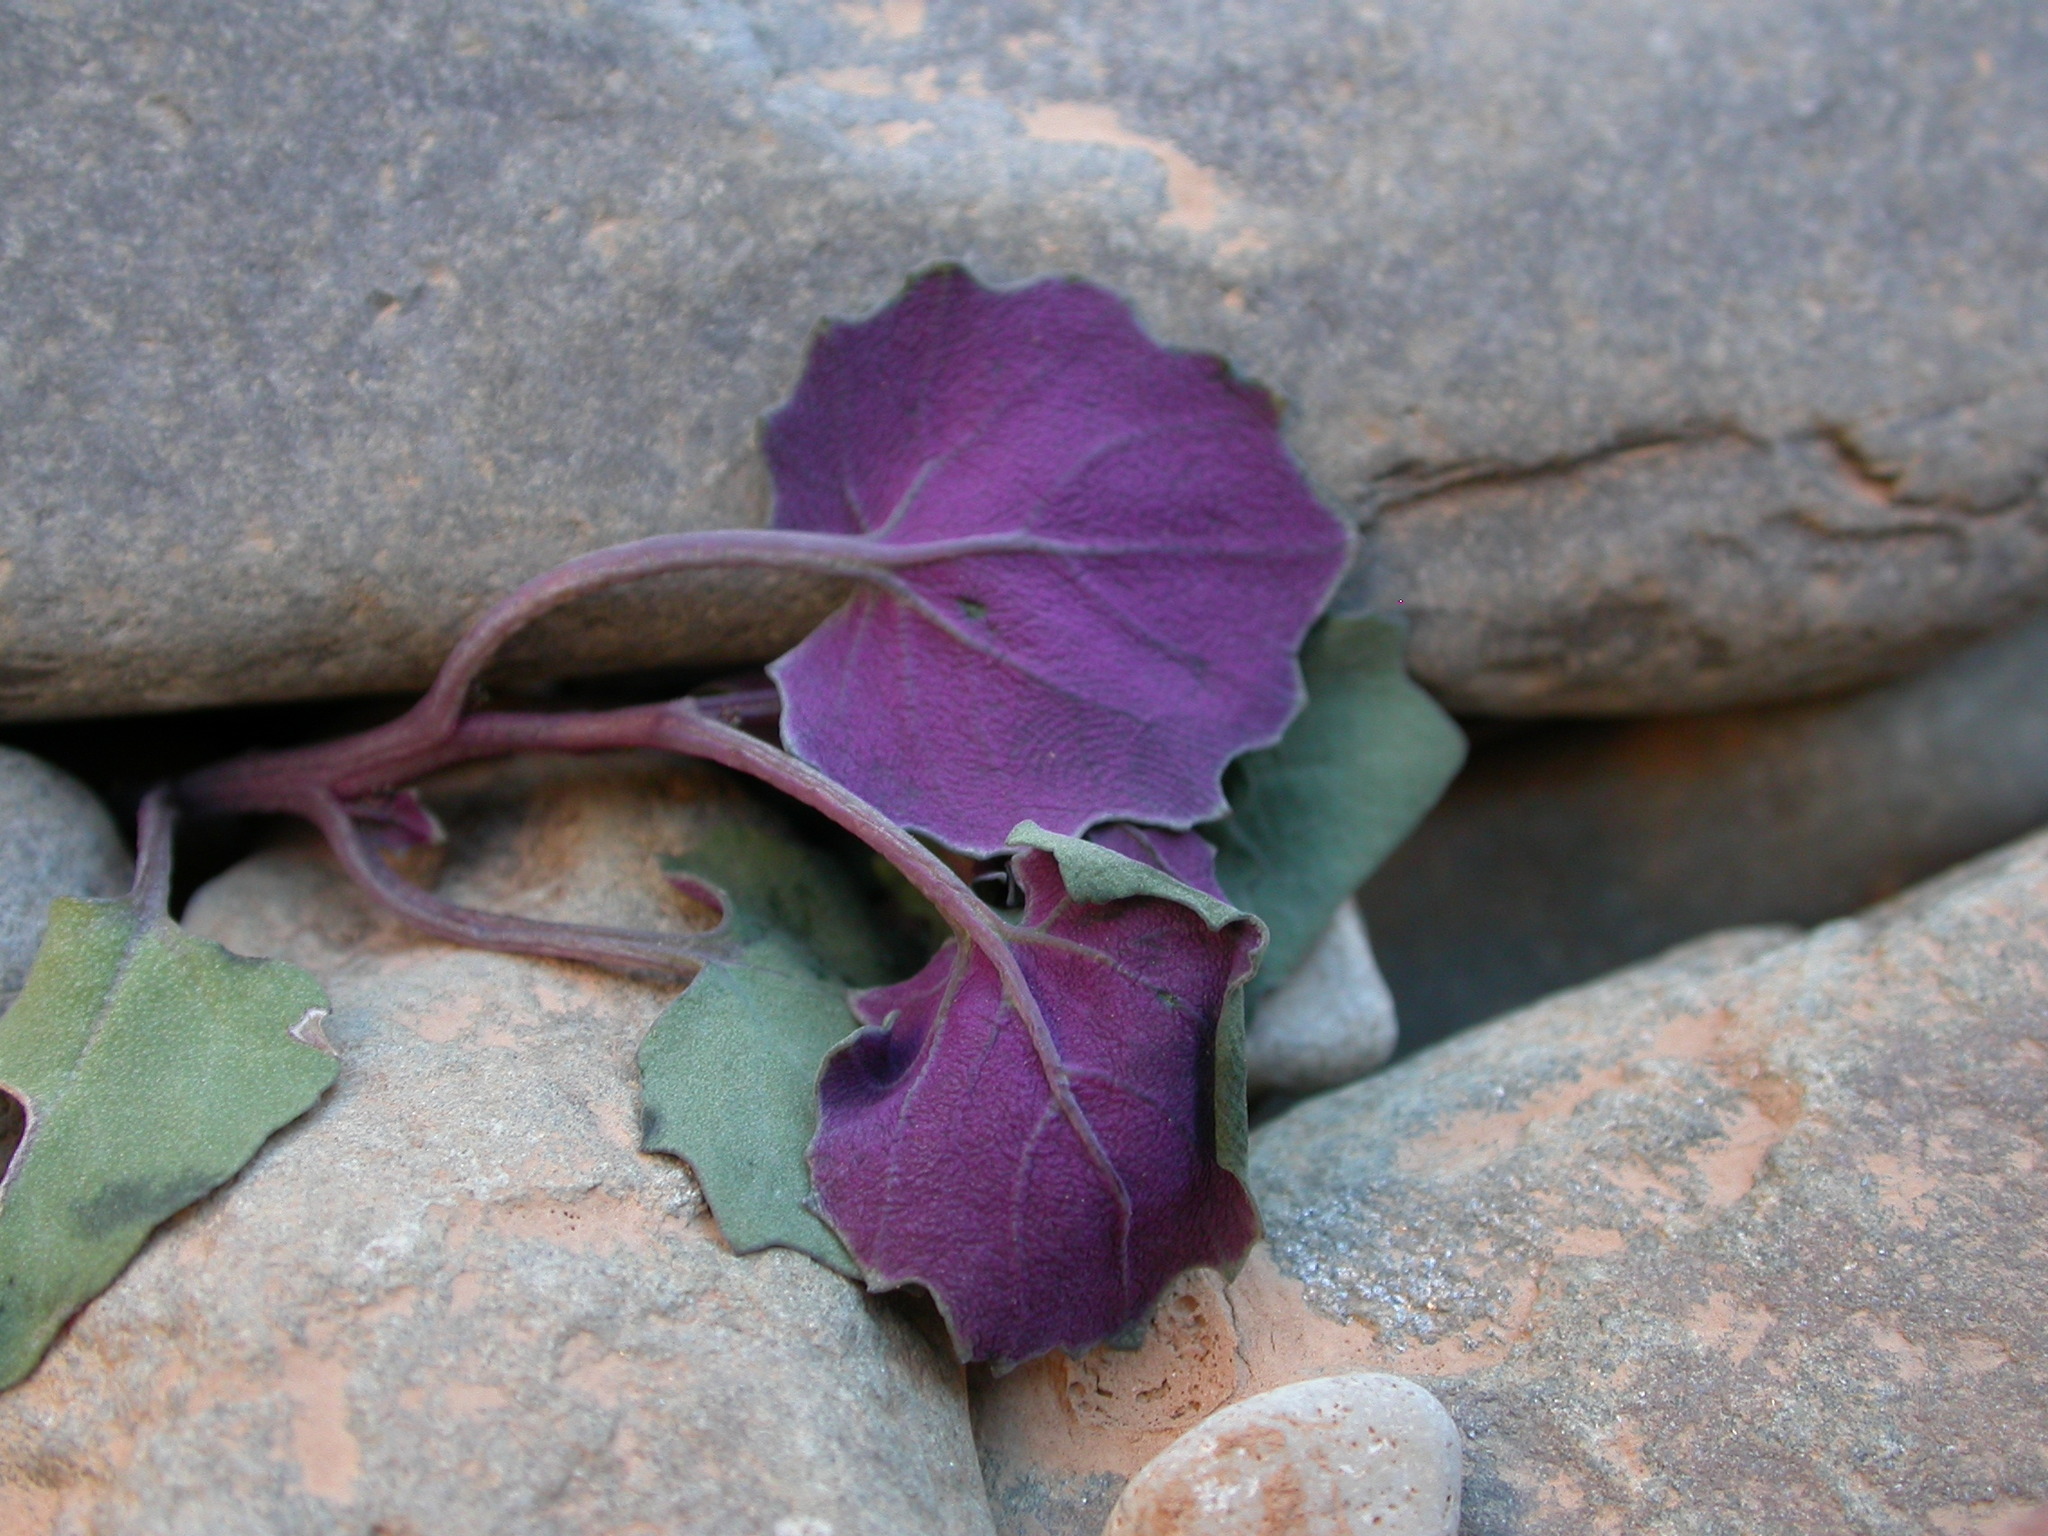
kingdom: Plantae
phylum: Tracheophyta
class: Magnoliopsida
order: Asterales
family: Asteraceae
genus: Senecio
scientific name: Senecio flavus
